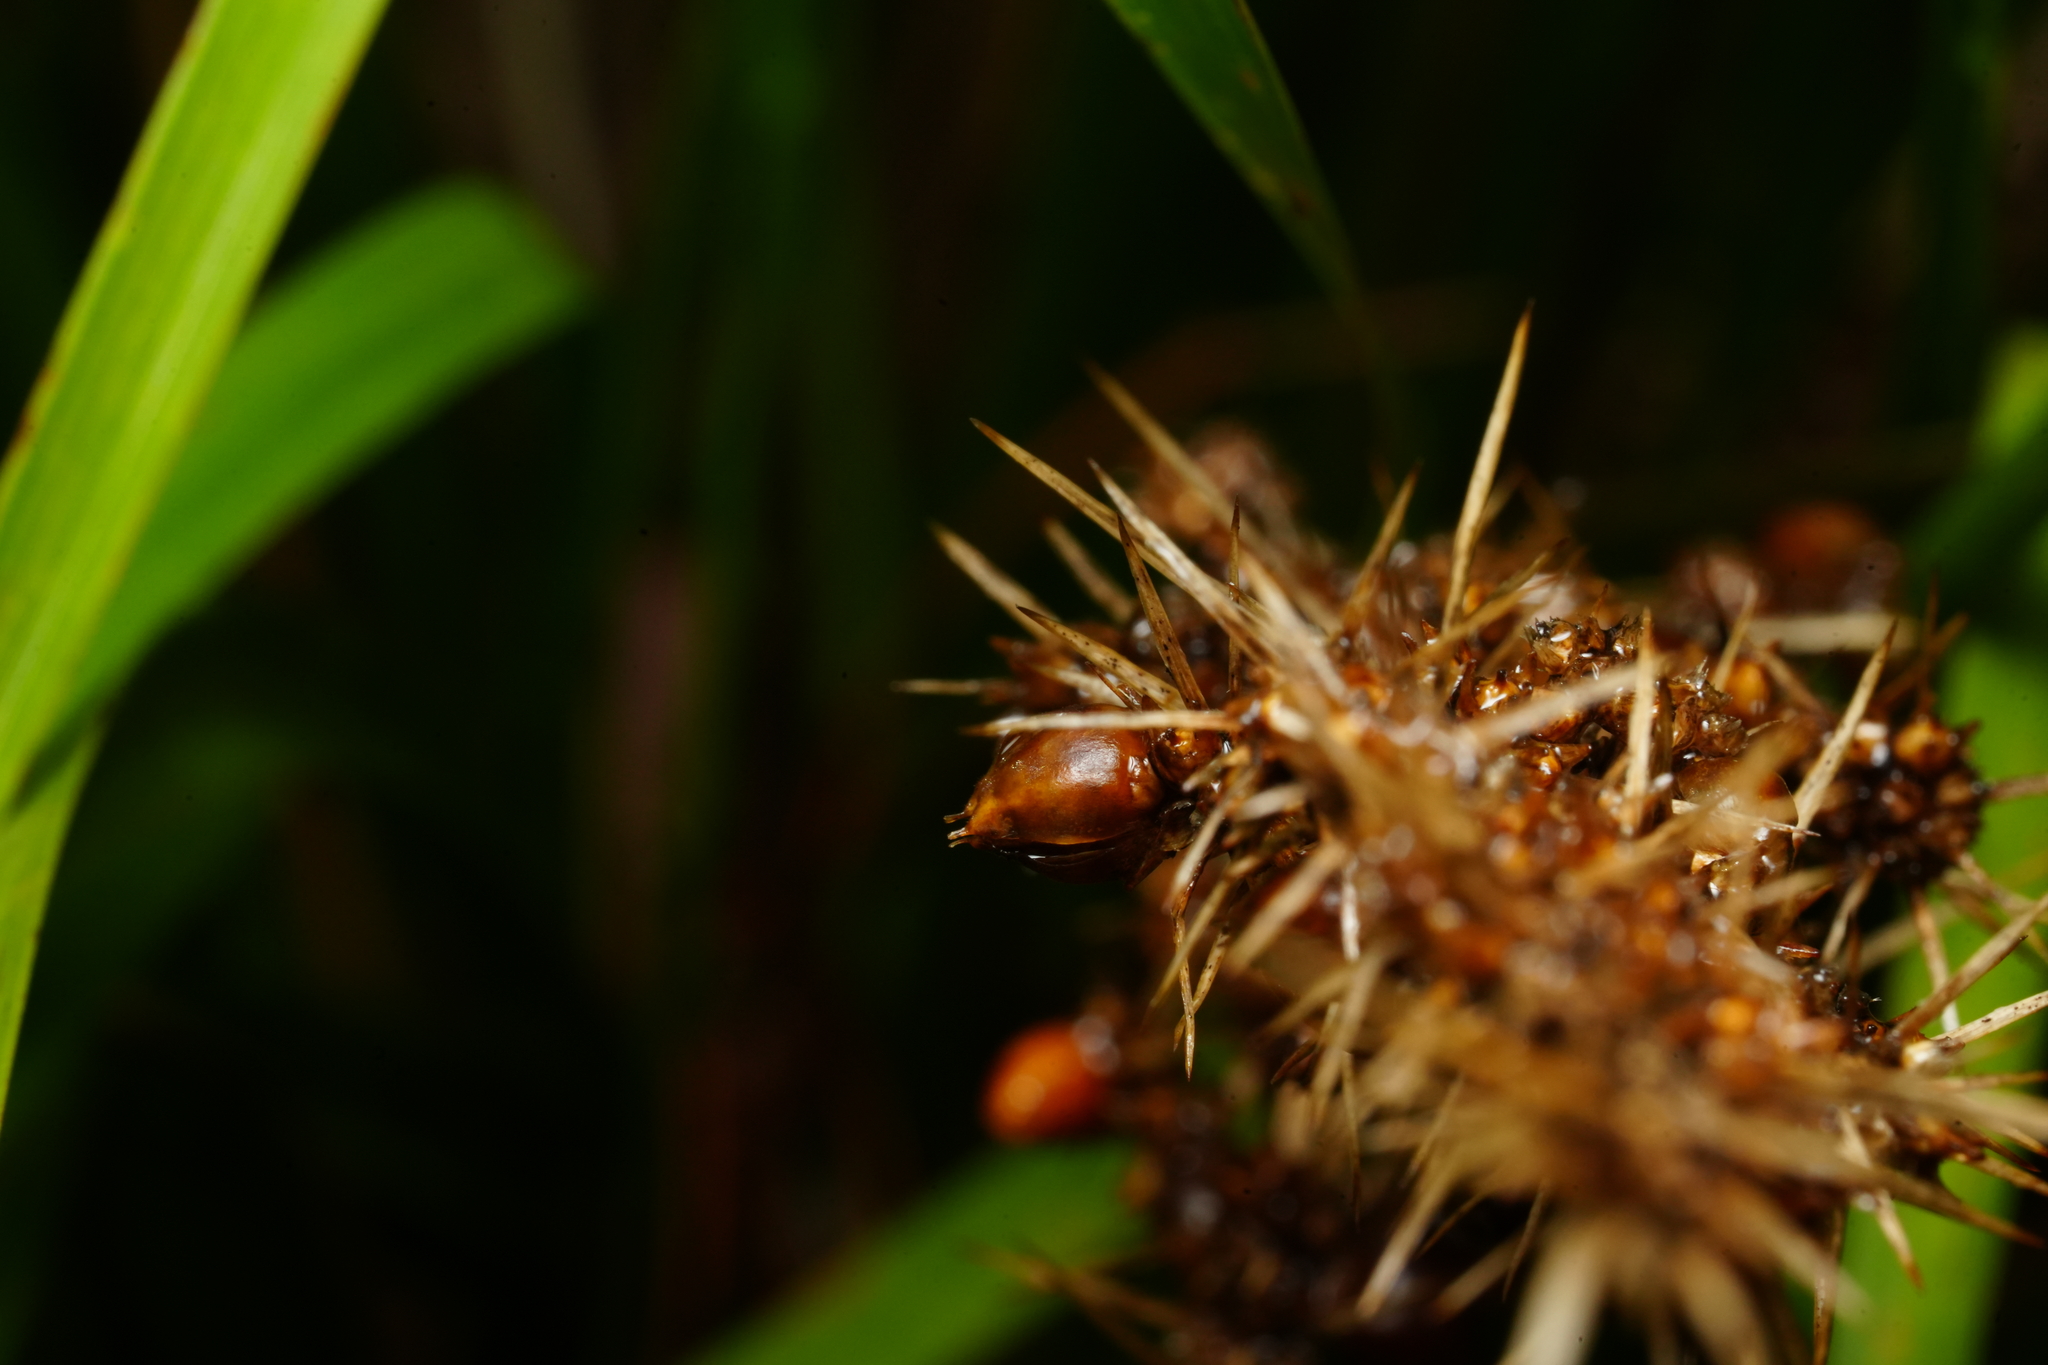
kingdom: Plantae
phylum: Tracheophyta
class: Liliopsida
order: Asparagales
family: Asparagaceae
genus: Lomandra
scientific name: Lomandra longifolia
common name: Longleaf mat-rush
